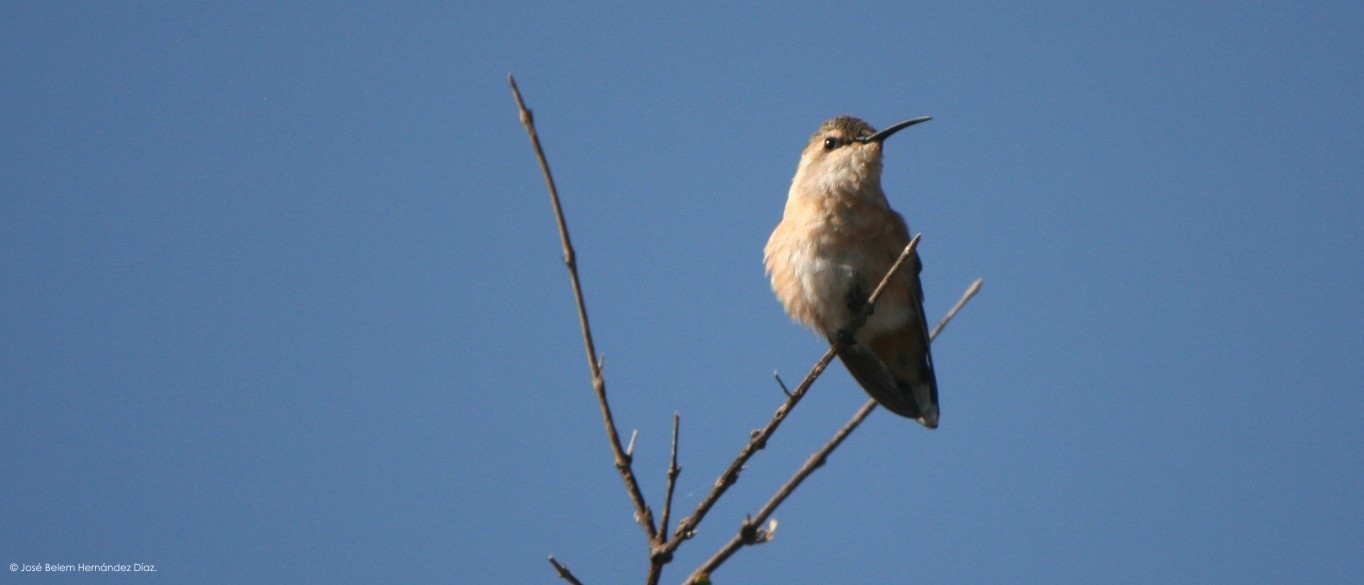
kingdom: Animalia
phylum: Chordata
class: Aves
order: Apodiformes
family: Trochilidae
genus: Calothorax
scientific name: Calothorax lucifer
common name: Lucifer sheartail
